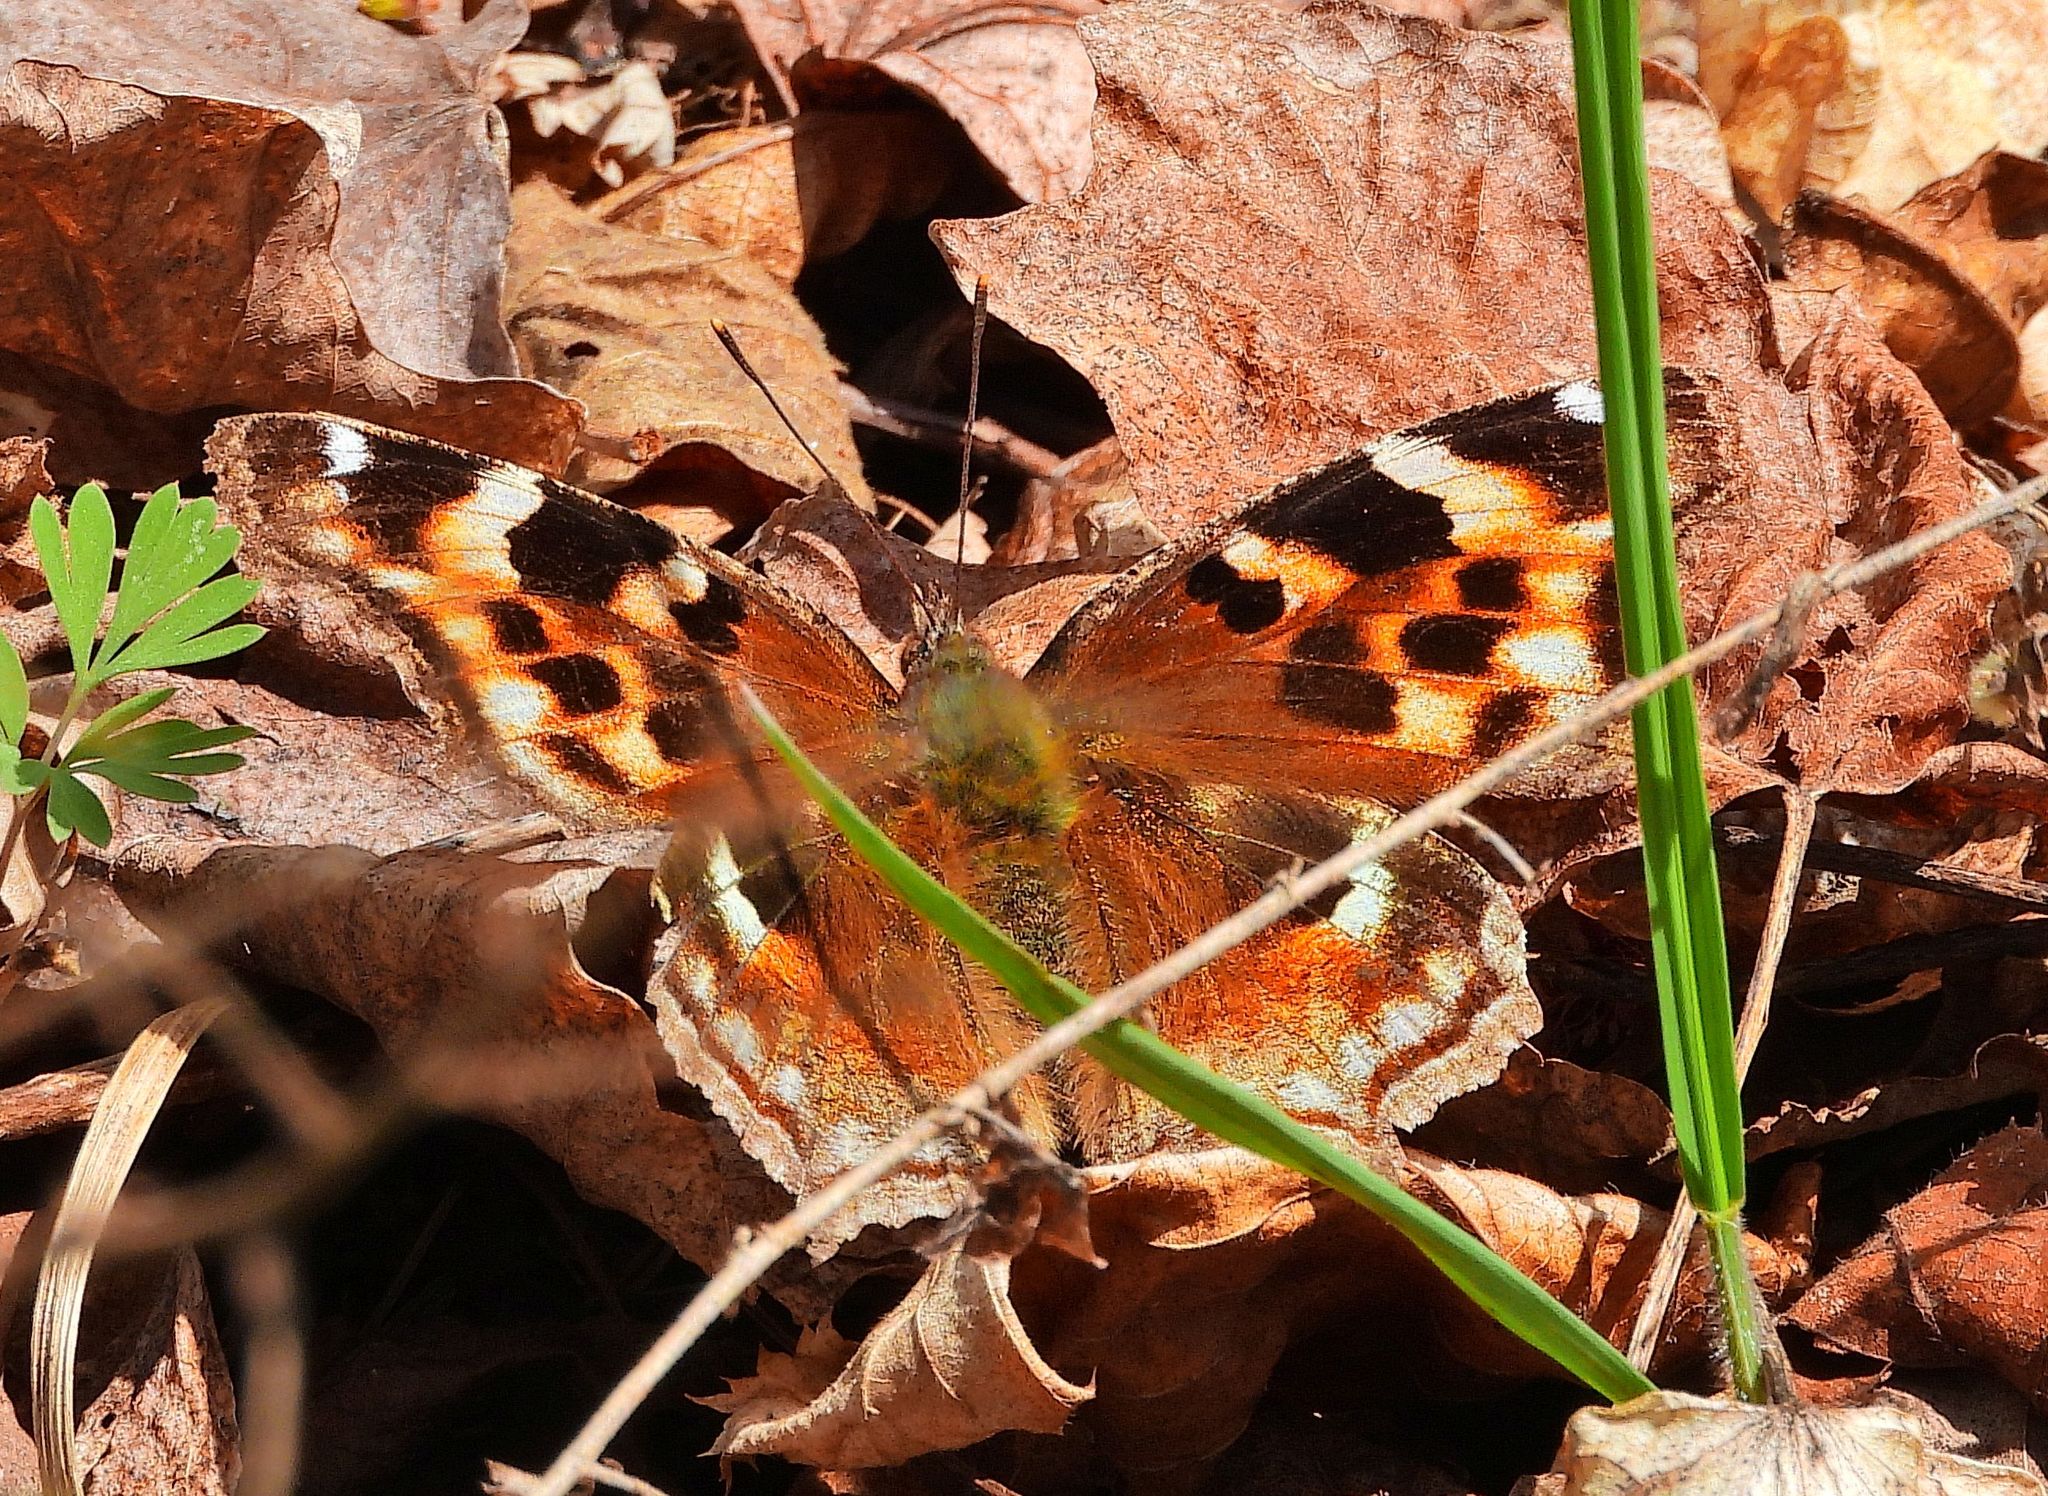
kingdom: Animalia
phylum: Arthropoda
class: Insecta
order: Lepidoptera
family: Nymphalidae
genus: Polygonia
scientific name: Polygonia vaualbum
